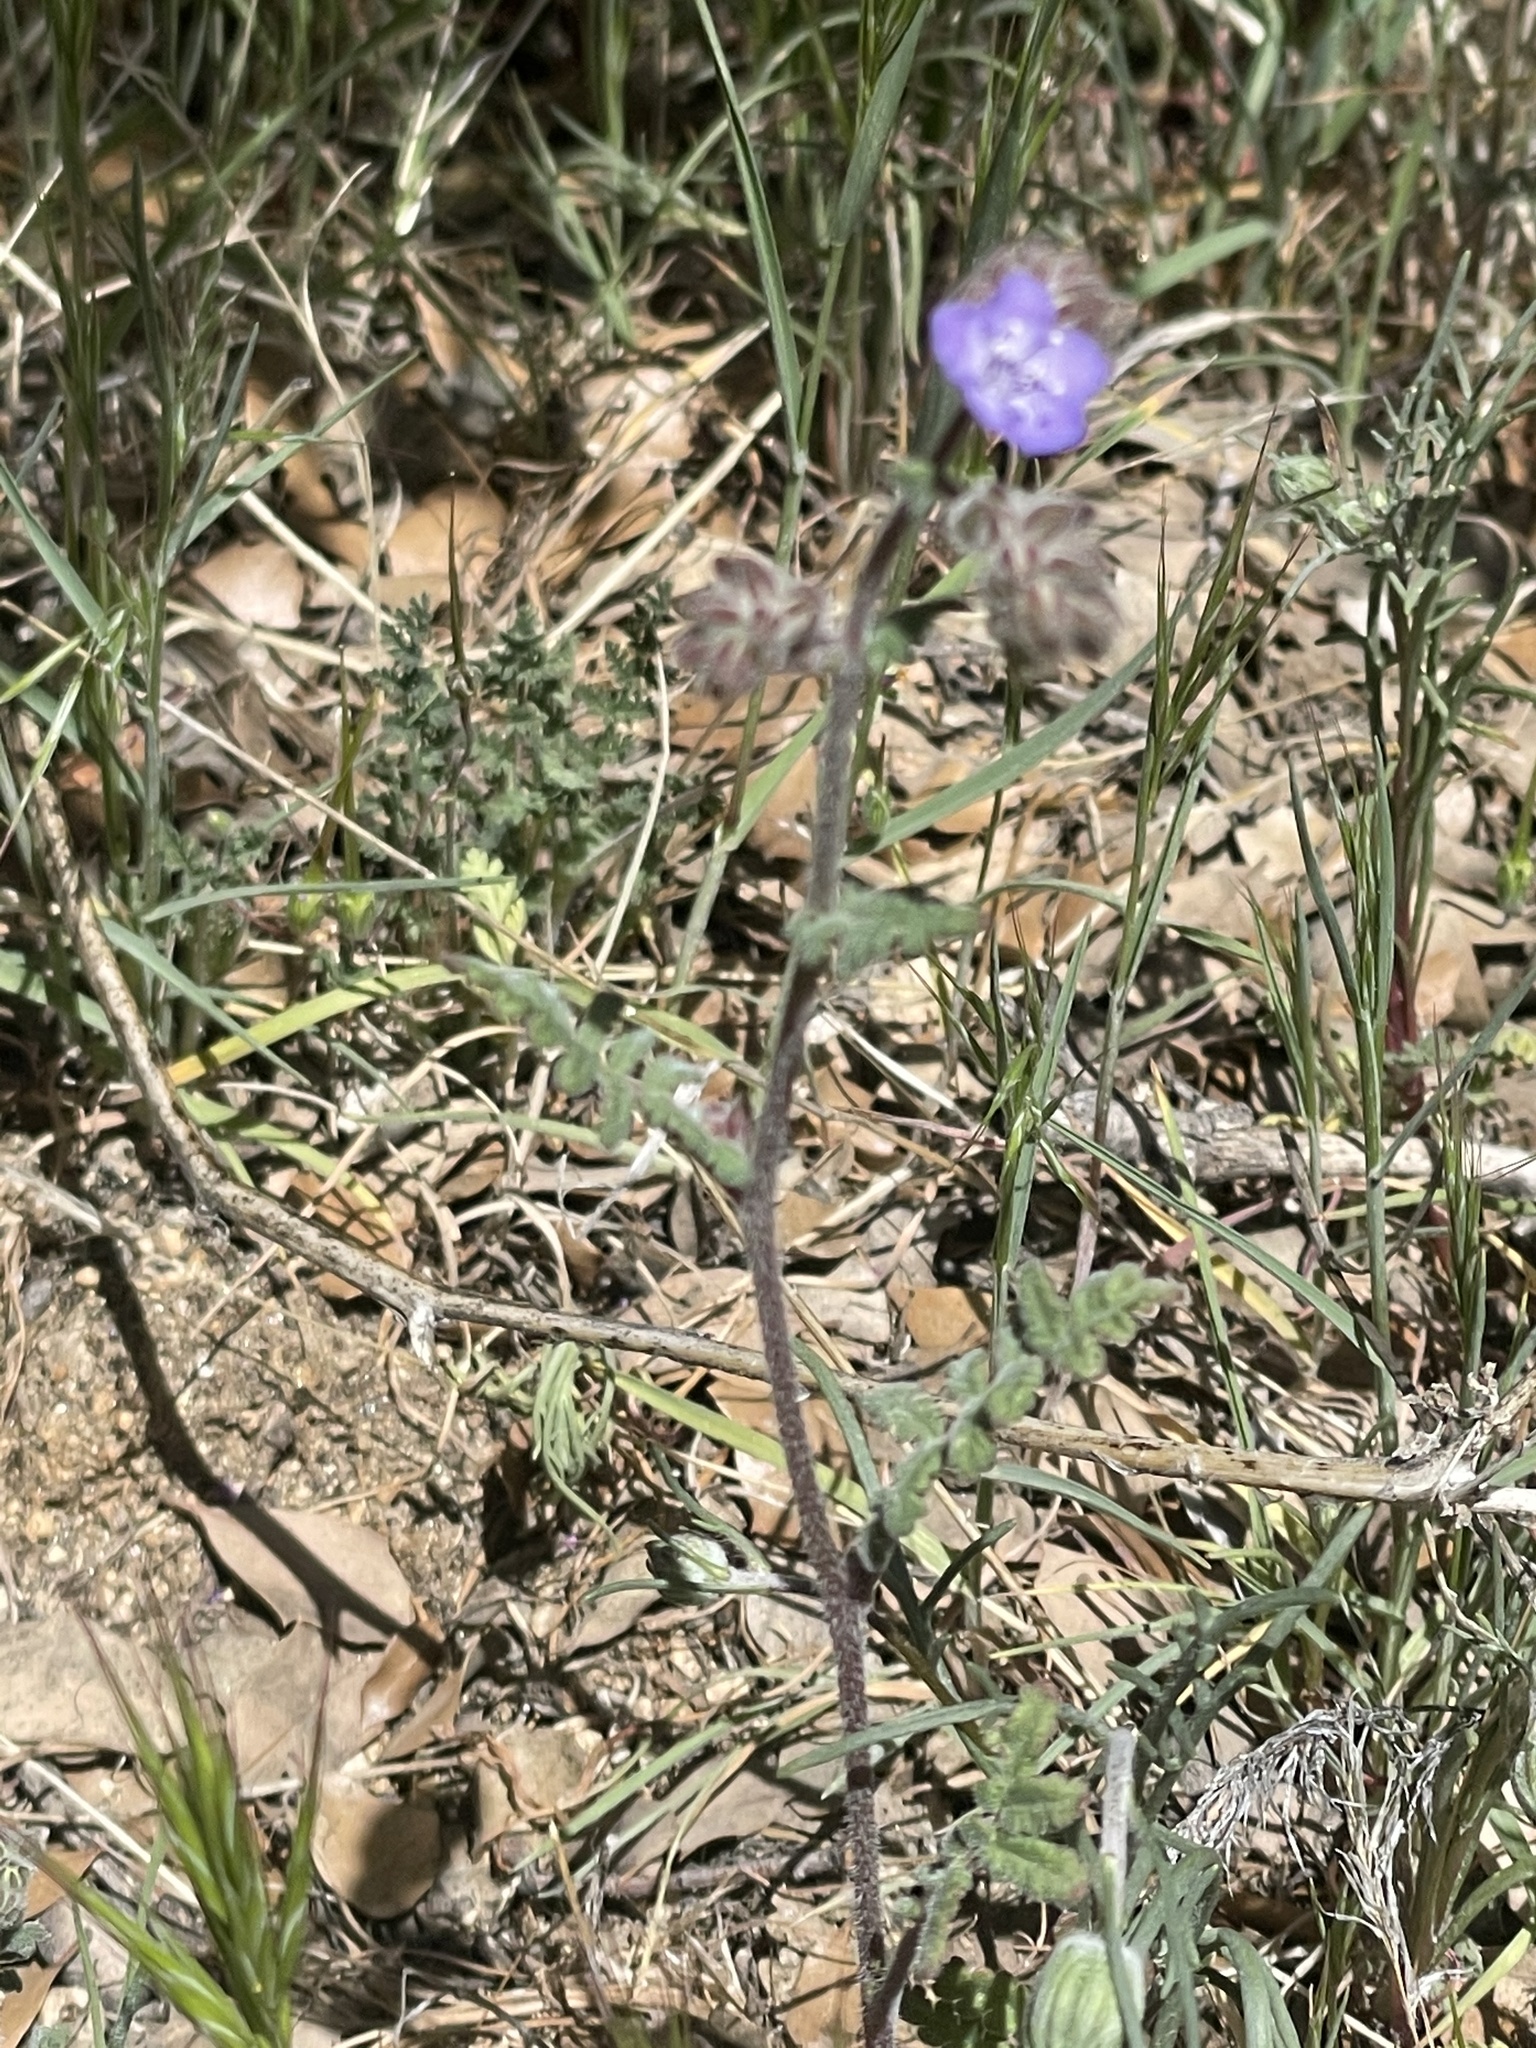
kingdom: Plantae
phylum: Tracheophyta
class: Magnoliopsida
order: Boraginales
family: Hydrophyllaceae
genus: Phacelia
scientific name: Phacelia distans
